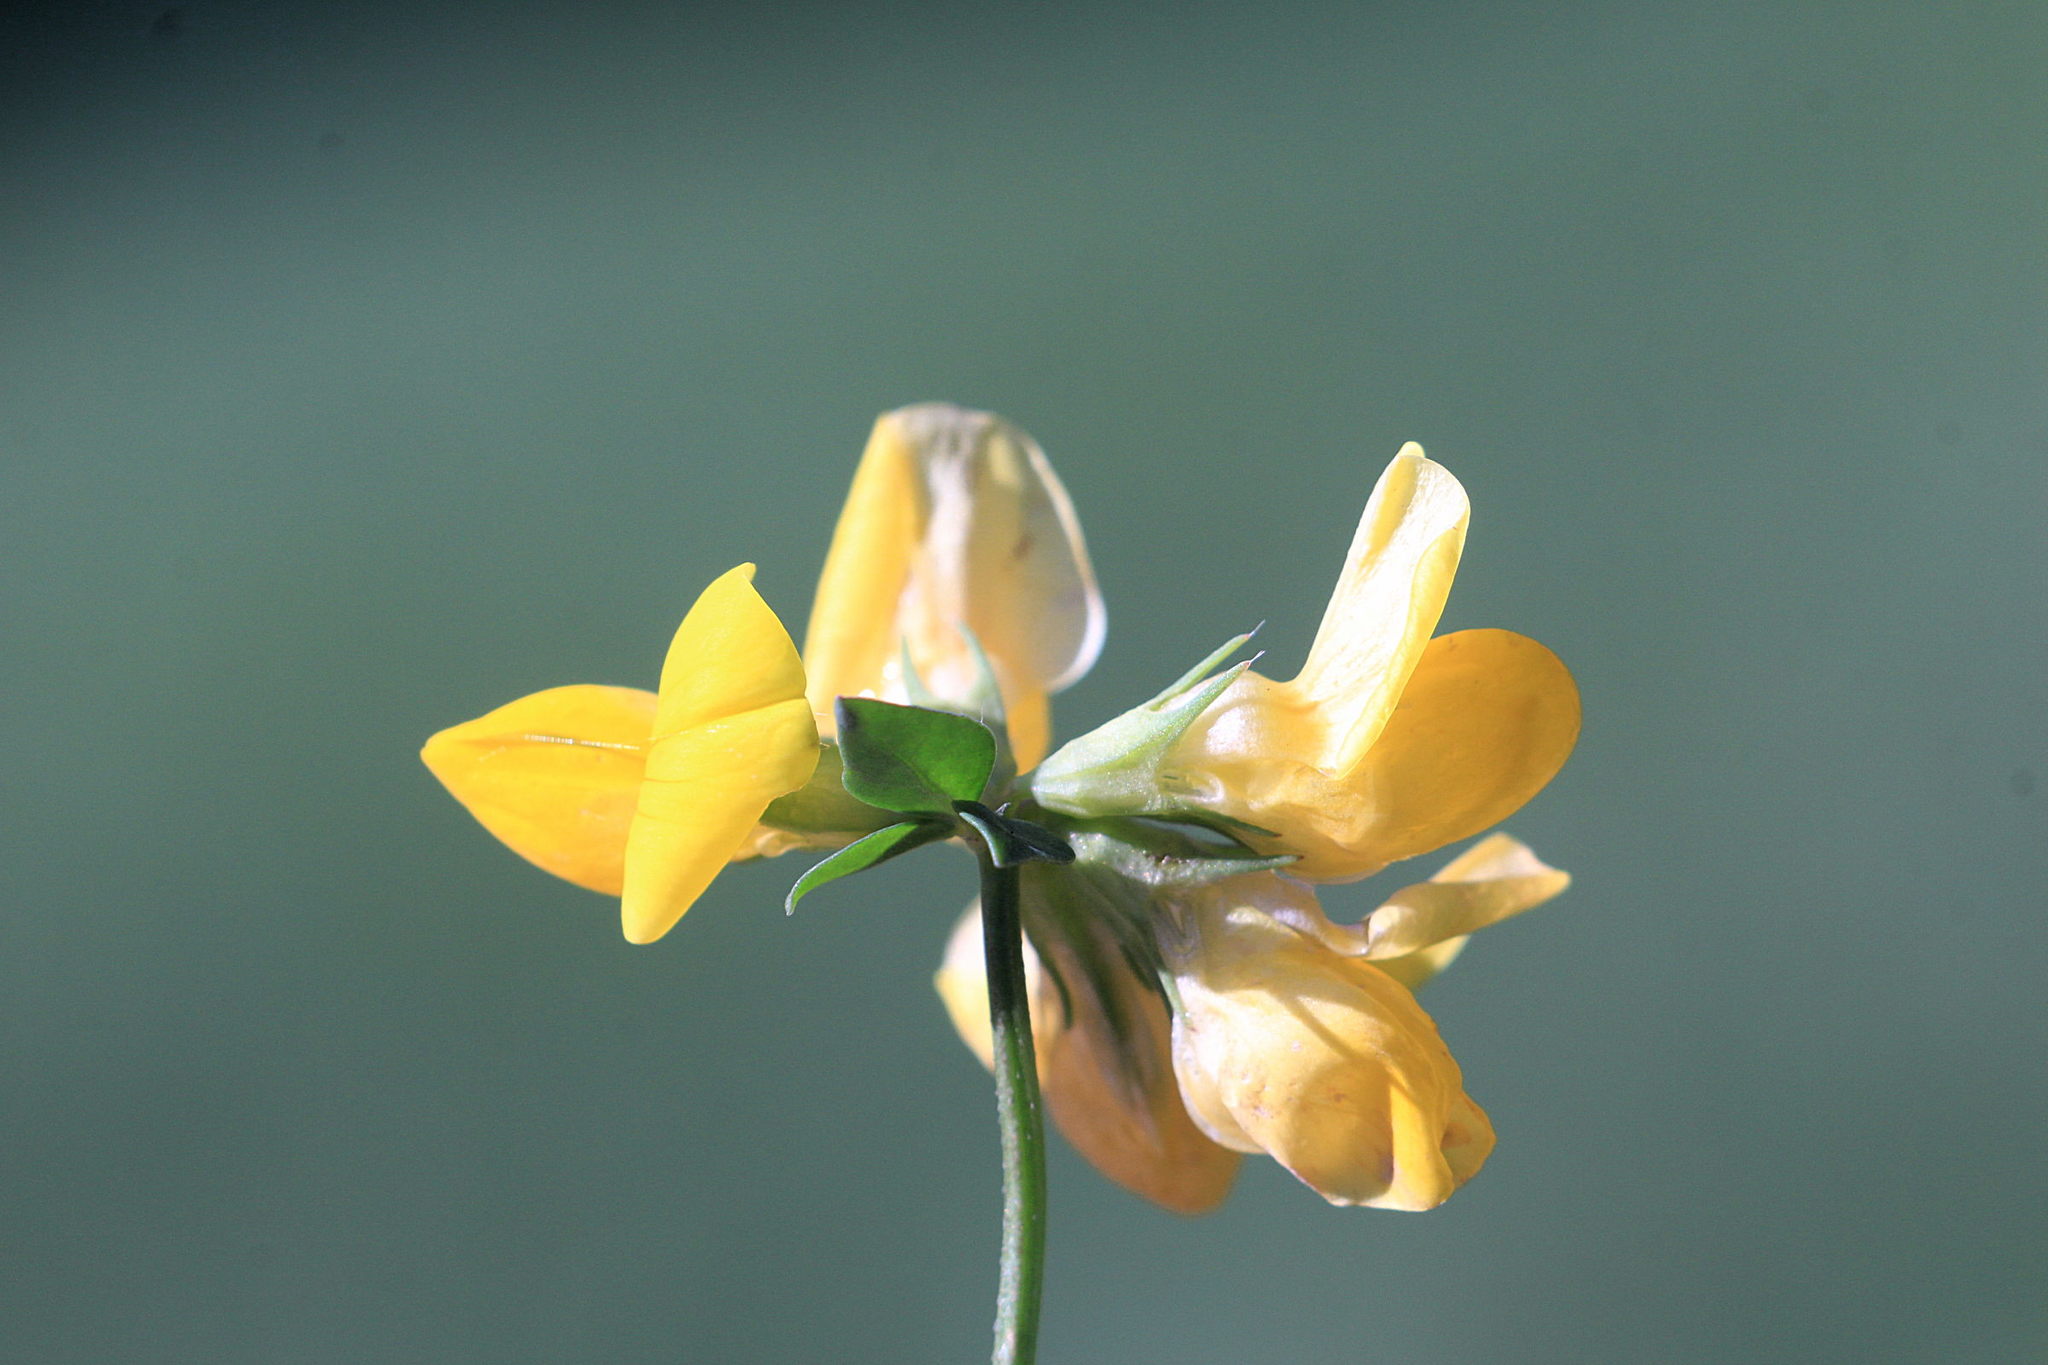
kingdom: Plantae
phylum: Tracheophyta
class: Magnoliopsida
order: Fabales
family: Fabaceae
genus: Lotus
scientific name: Lotus corniculatus
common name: Common bird's-foot-trefoil
